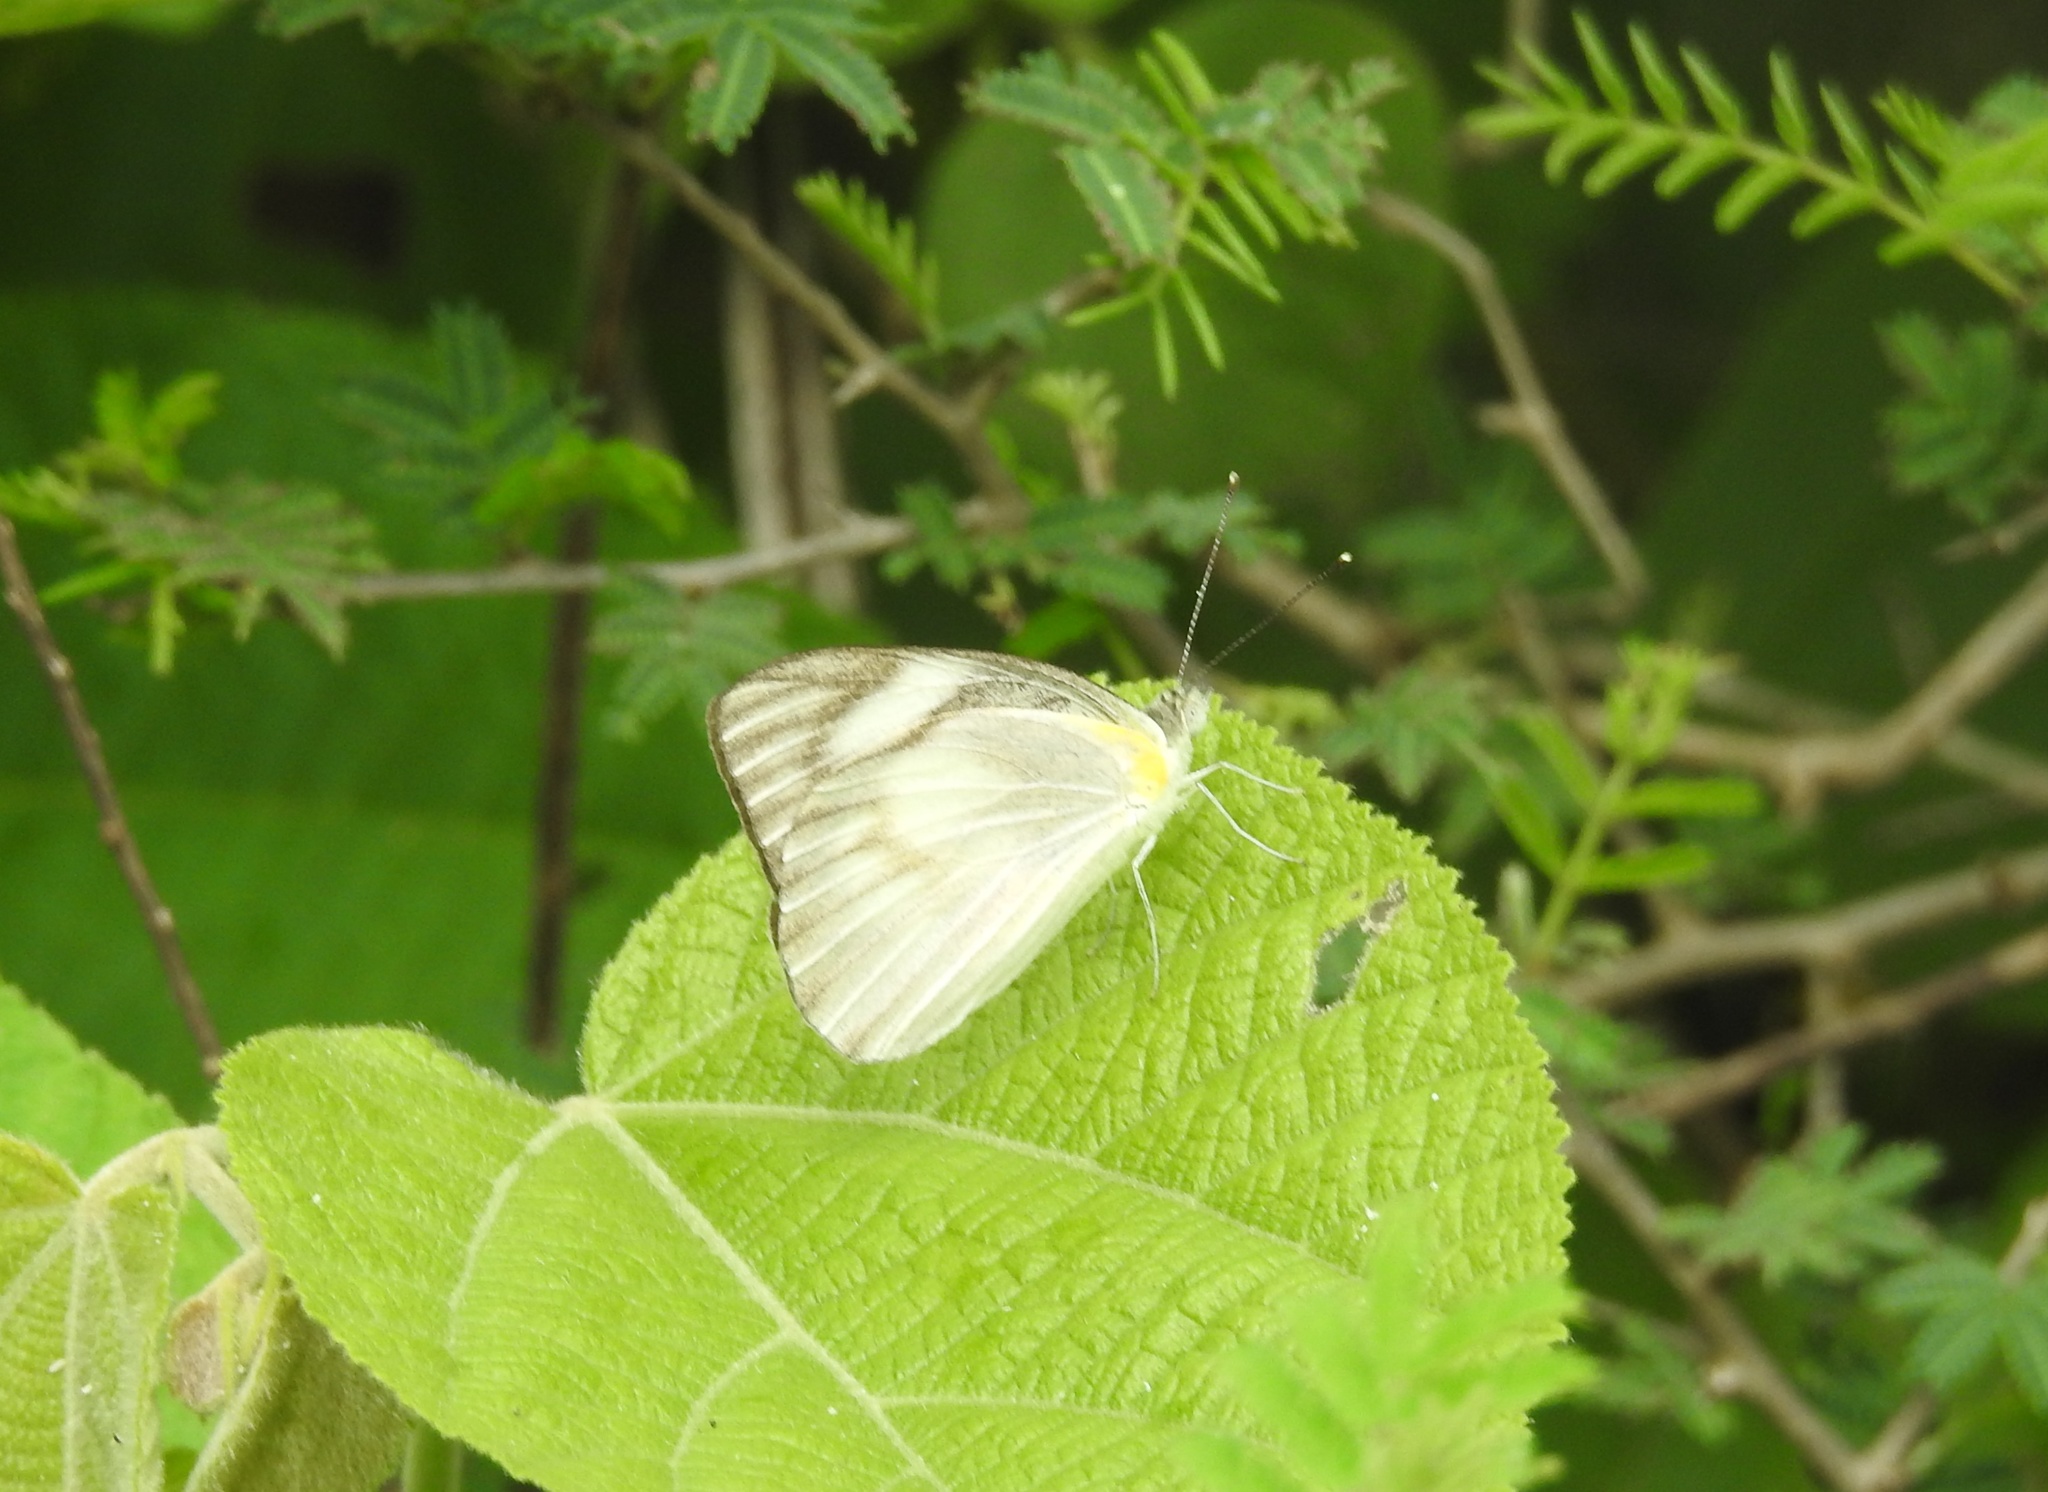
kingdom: Animalia
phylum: Arthropoda
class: Insecta
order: Lepidoptera
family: Pieridae
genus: Appias
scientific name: Appias libythea
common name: Striped albatross
